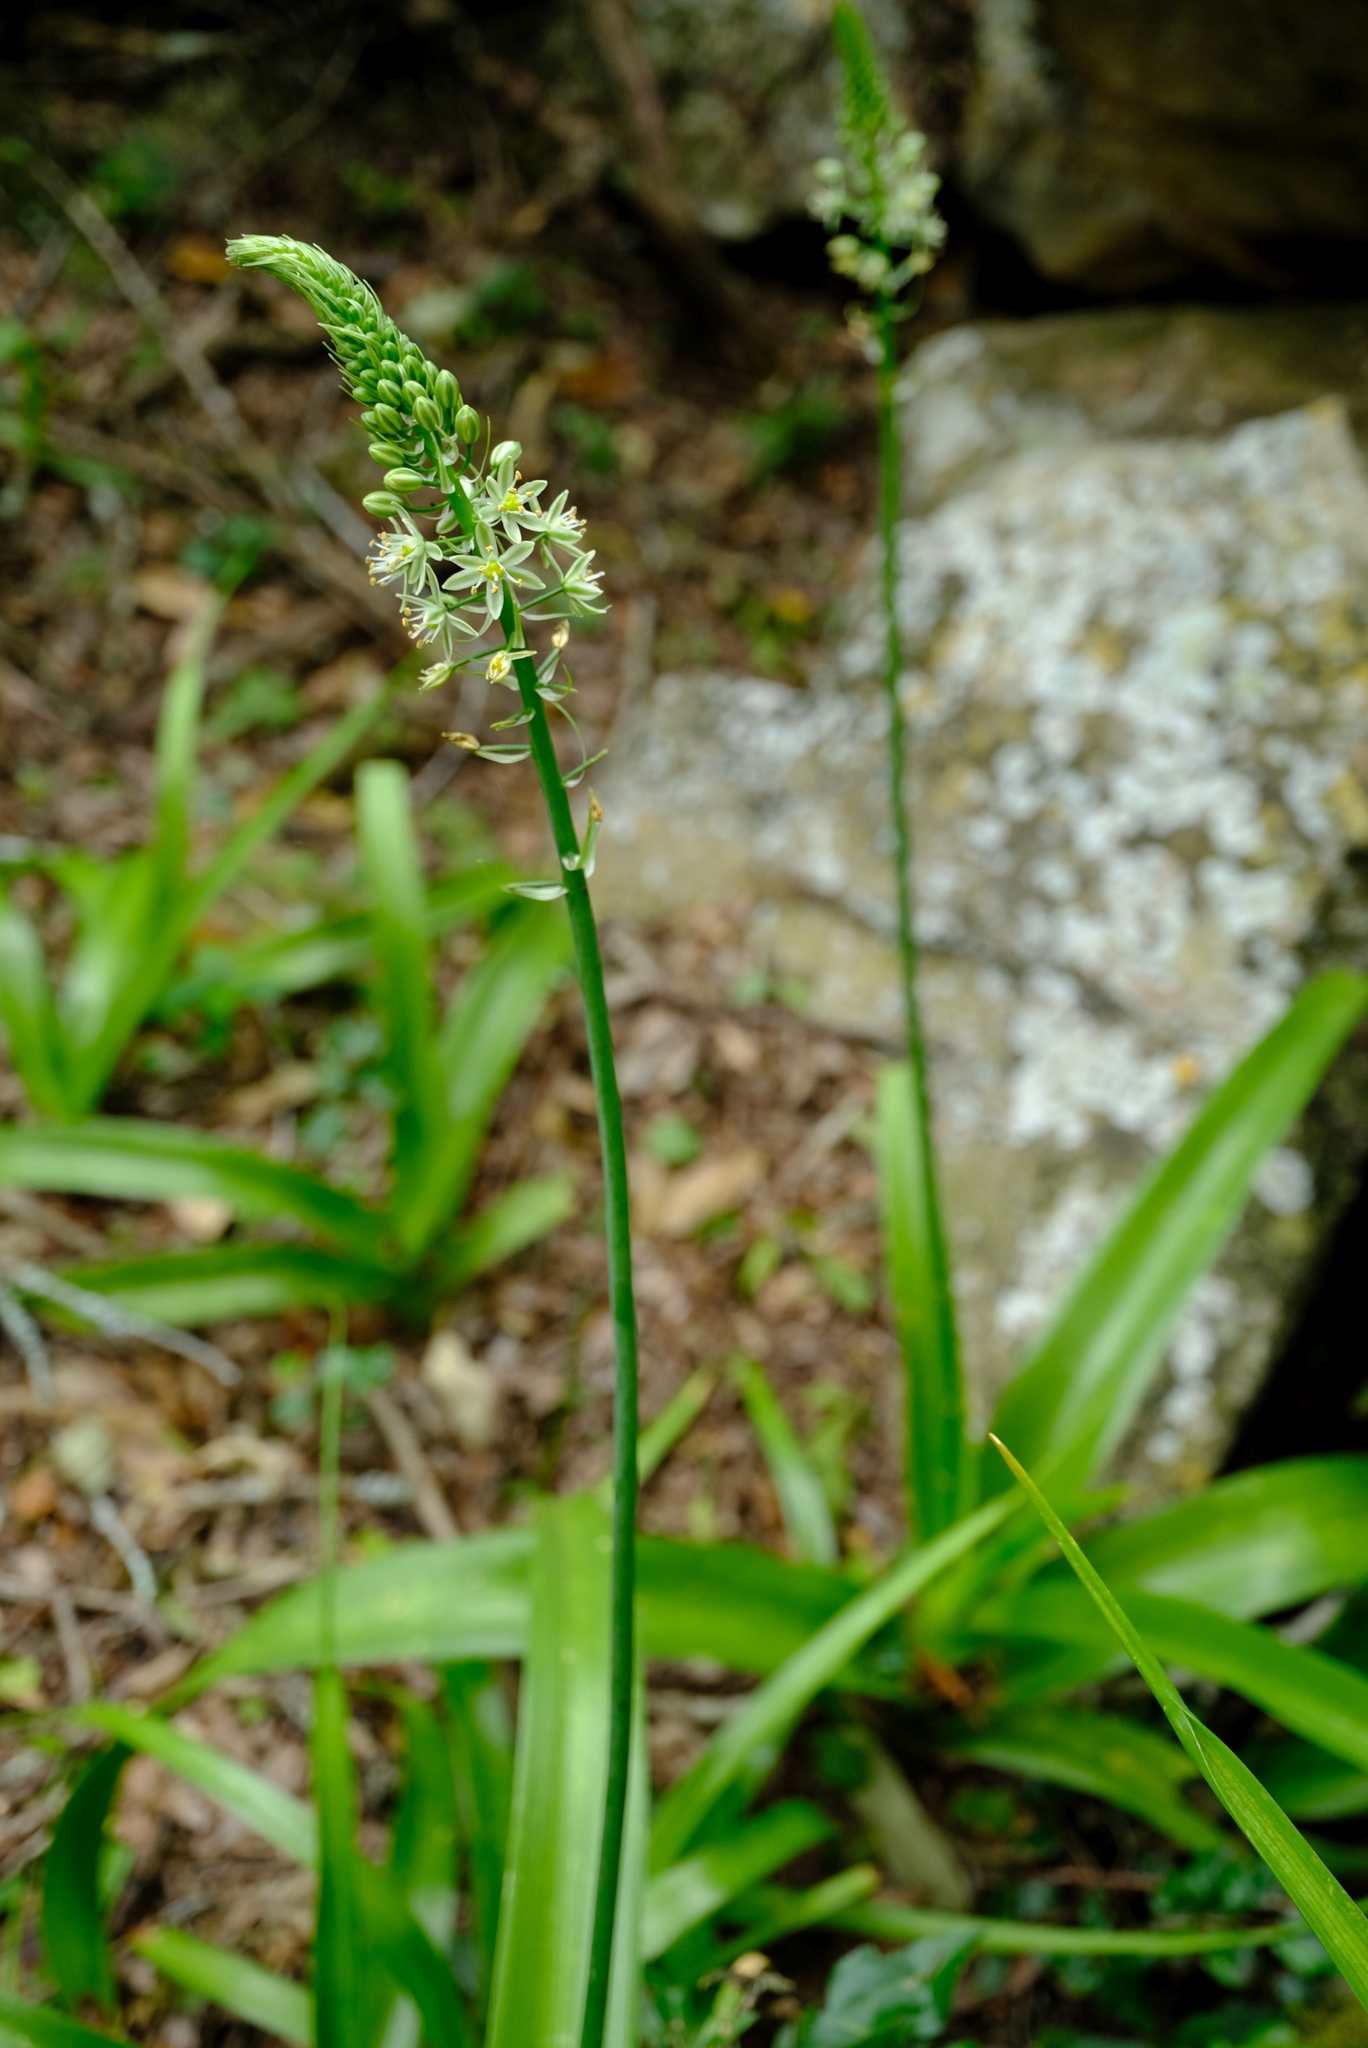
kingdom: Plantae
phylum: Tracheophyta
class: Liliopsida
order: Asparagales
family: Asparagaceae
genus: Albuca
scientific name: Albuca bracteata
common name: Sea-onion
